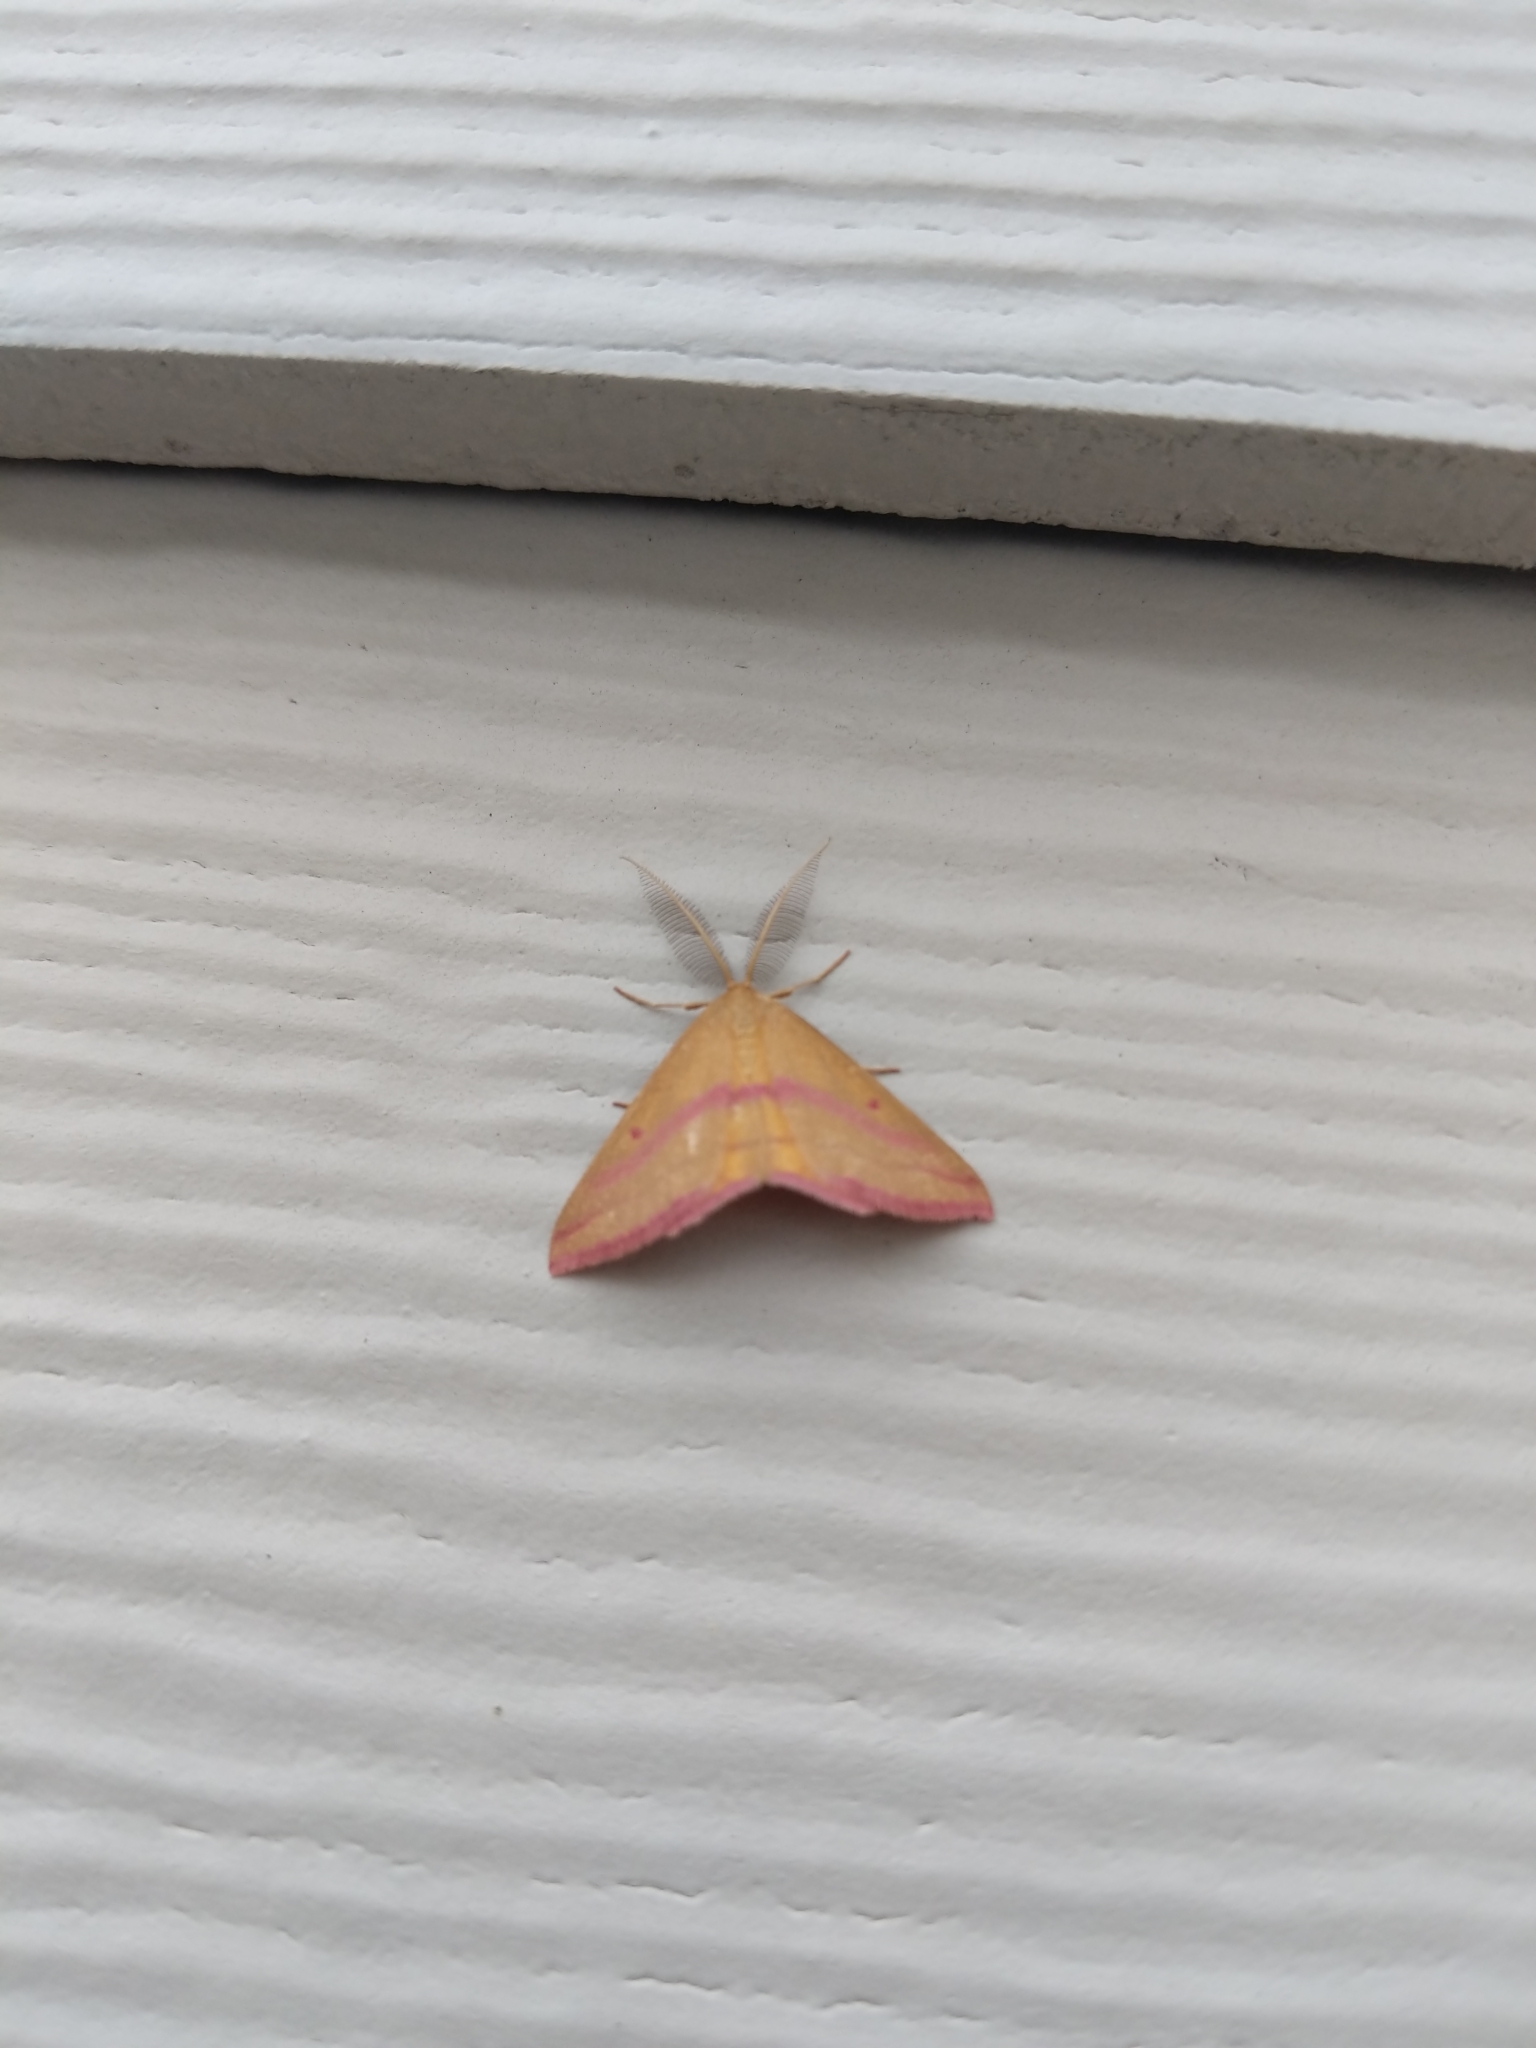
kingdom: Animalia
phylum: Arthropoda
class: Insecta
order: Lepidoptera
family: Geometridae
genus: Haematopis
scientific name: Haematopis grataria
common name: Chickweed geometer
